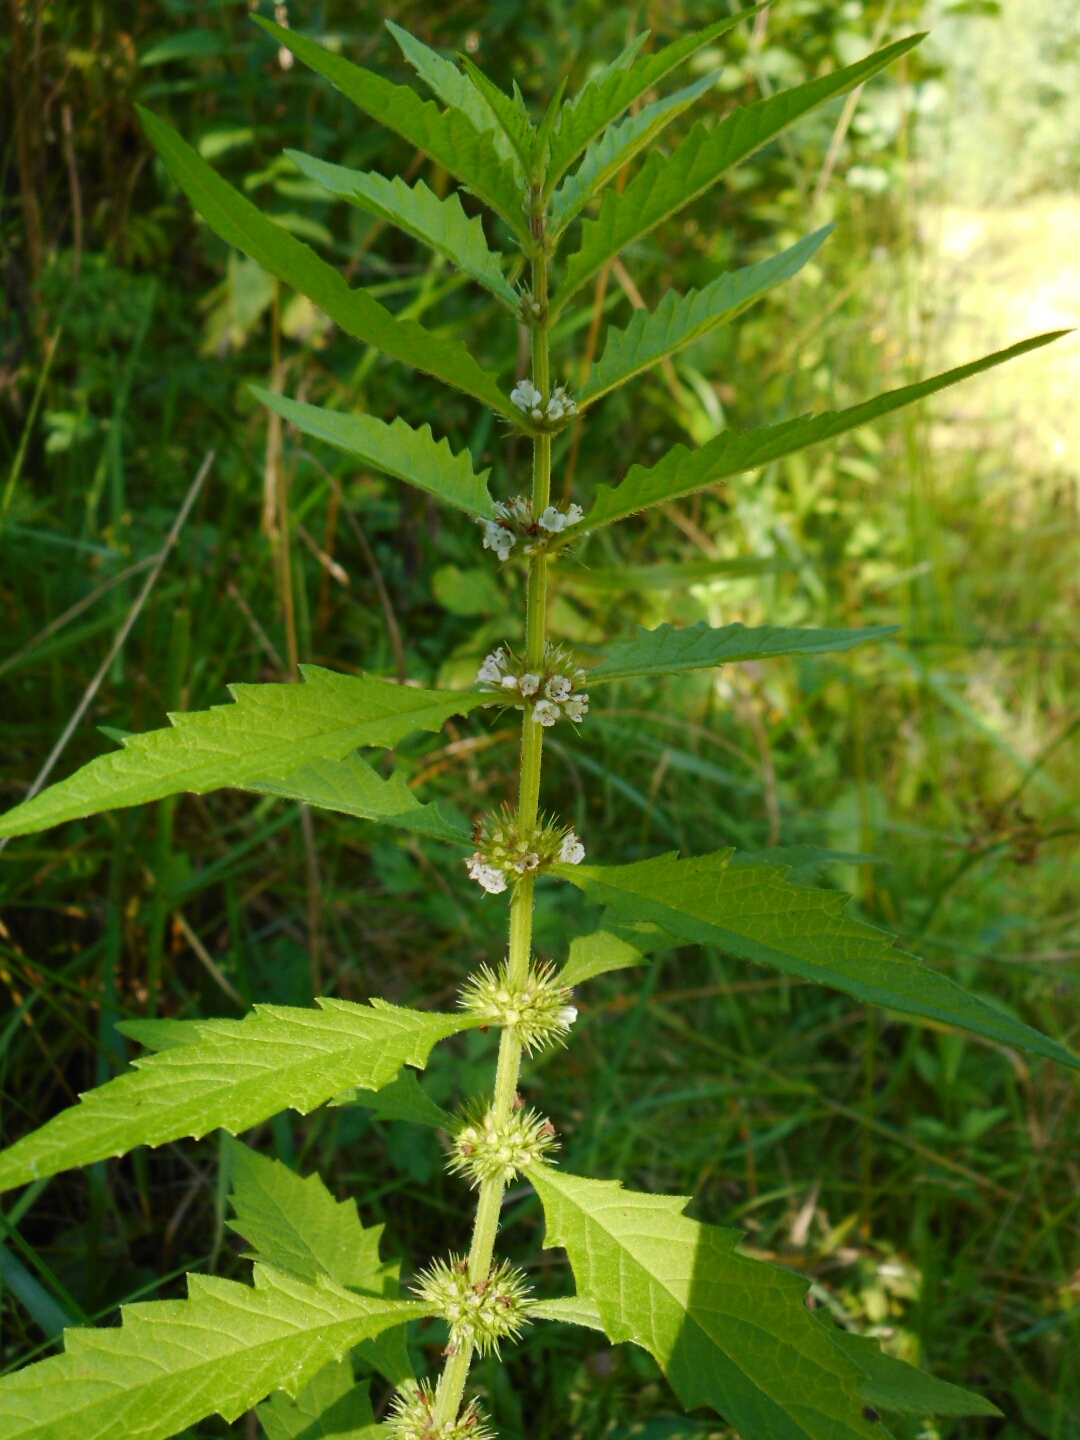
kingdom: Plantae
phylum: Tracheophyta
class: Magnoliopsida
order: Lamiales
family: Lamiaceae
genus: Lycopus
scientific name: Lycopus europaeus
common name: European bugleweed
